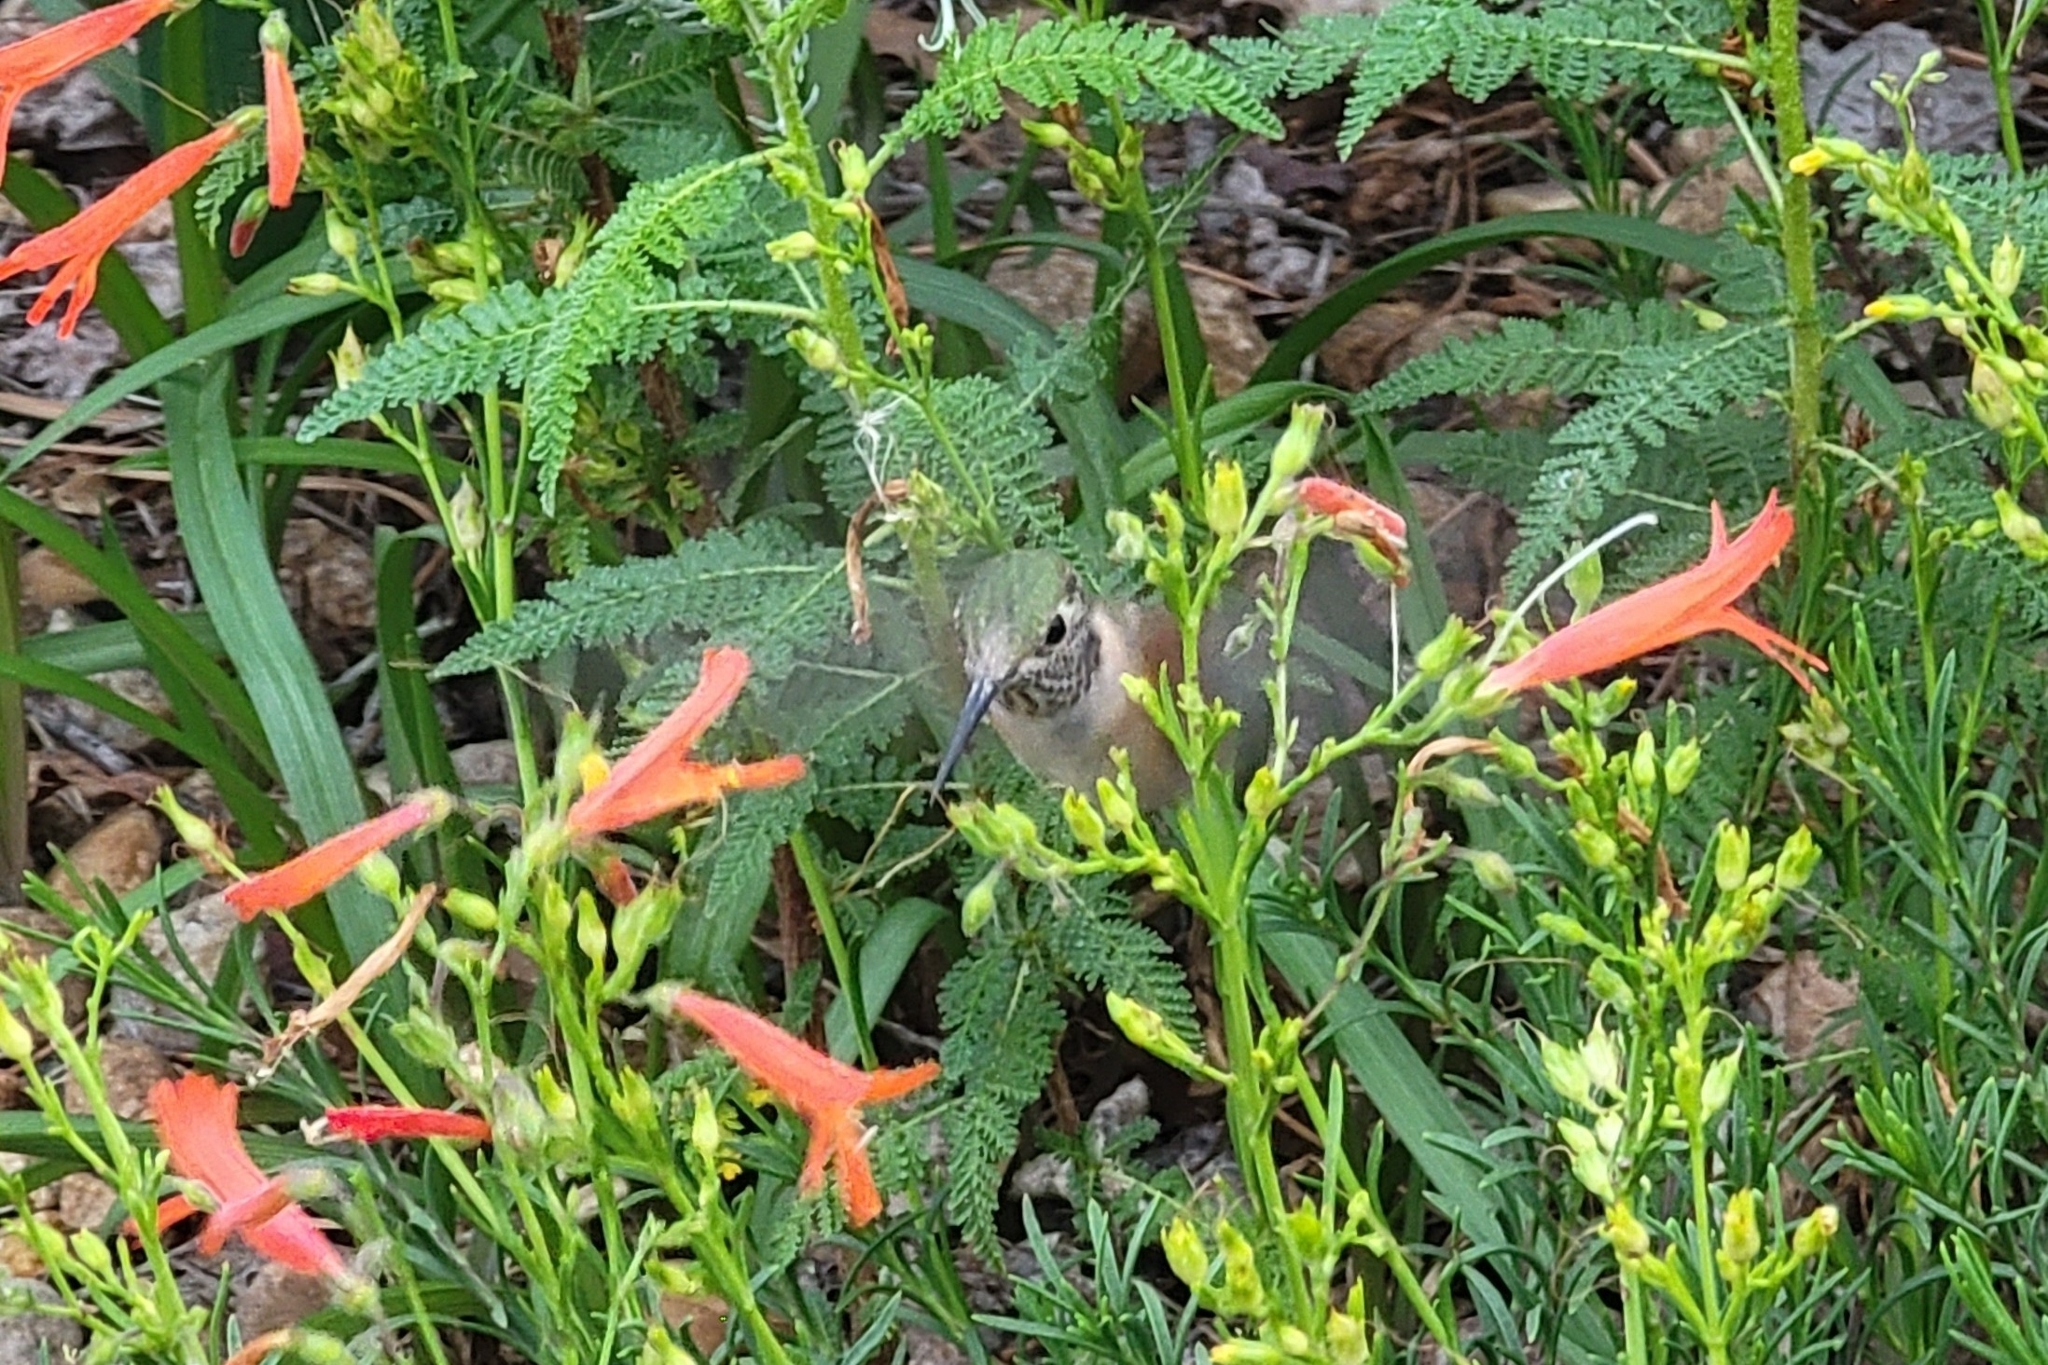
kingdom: Animalia
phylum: Chordata
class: Aves
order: Apodiformes
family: Trochilidae
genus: Selasphorus
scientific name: Selasphorus rufus
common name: Rufous hummingbird
